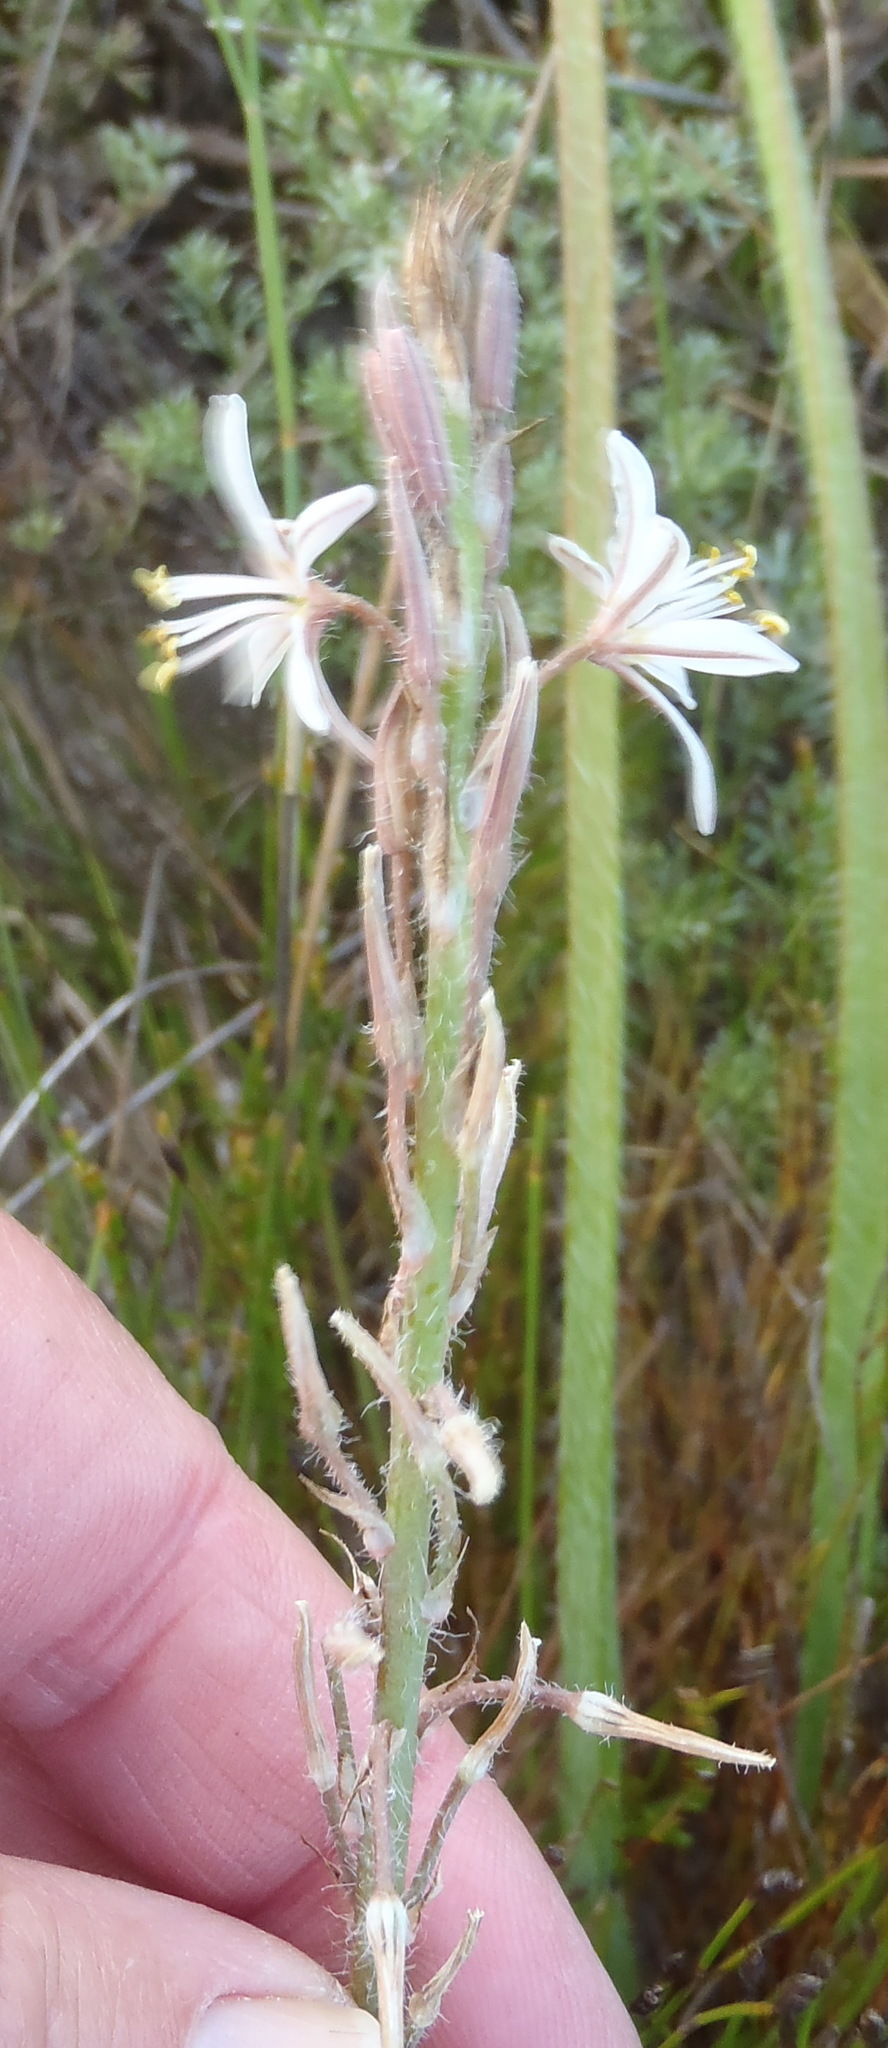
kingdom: Plantae
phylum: Tracheophyta
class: Liliopsida
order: Asparagales
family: Asphodelaceae
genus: Trachyandra
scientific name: Trachyandra ciliata
